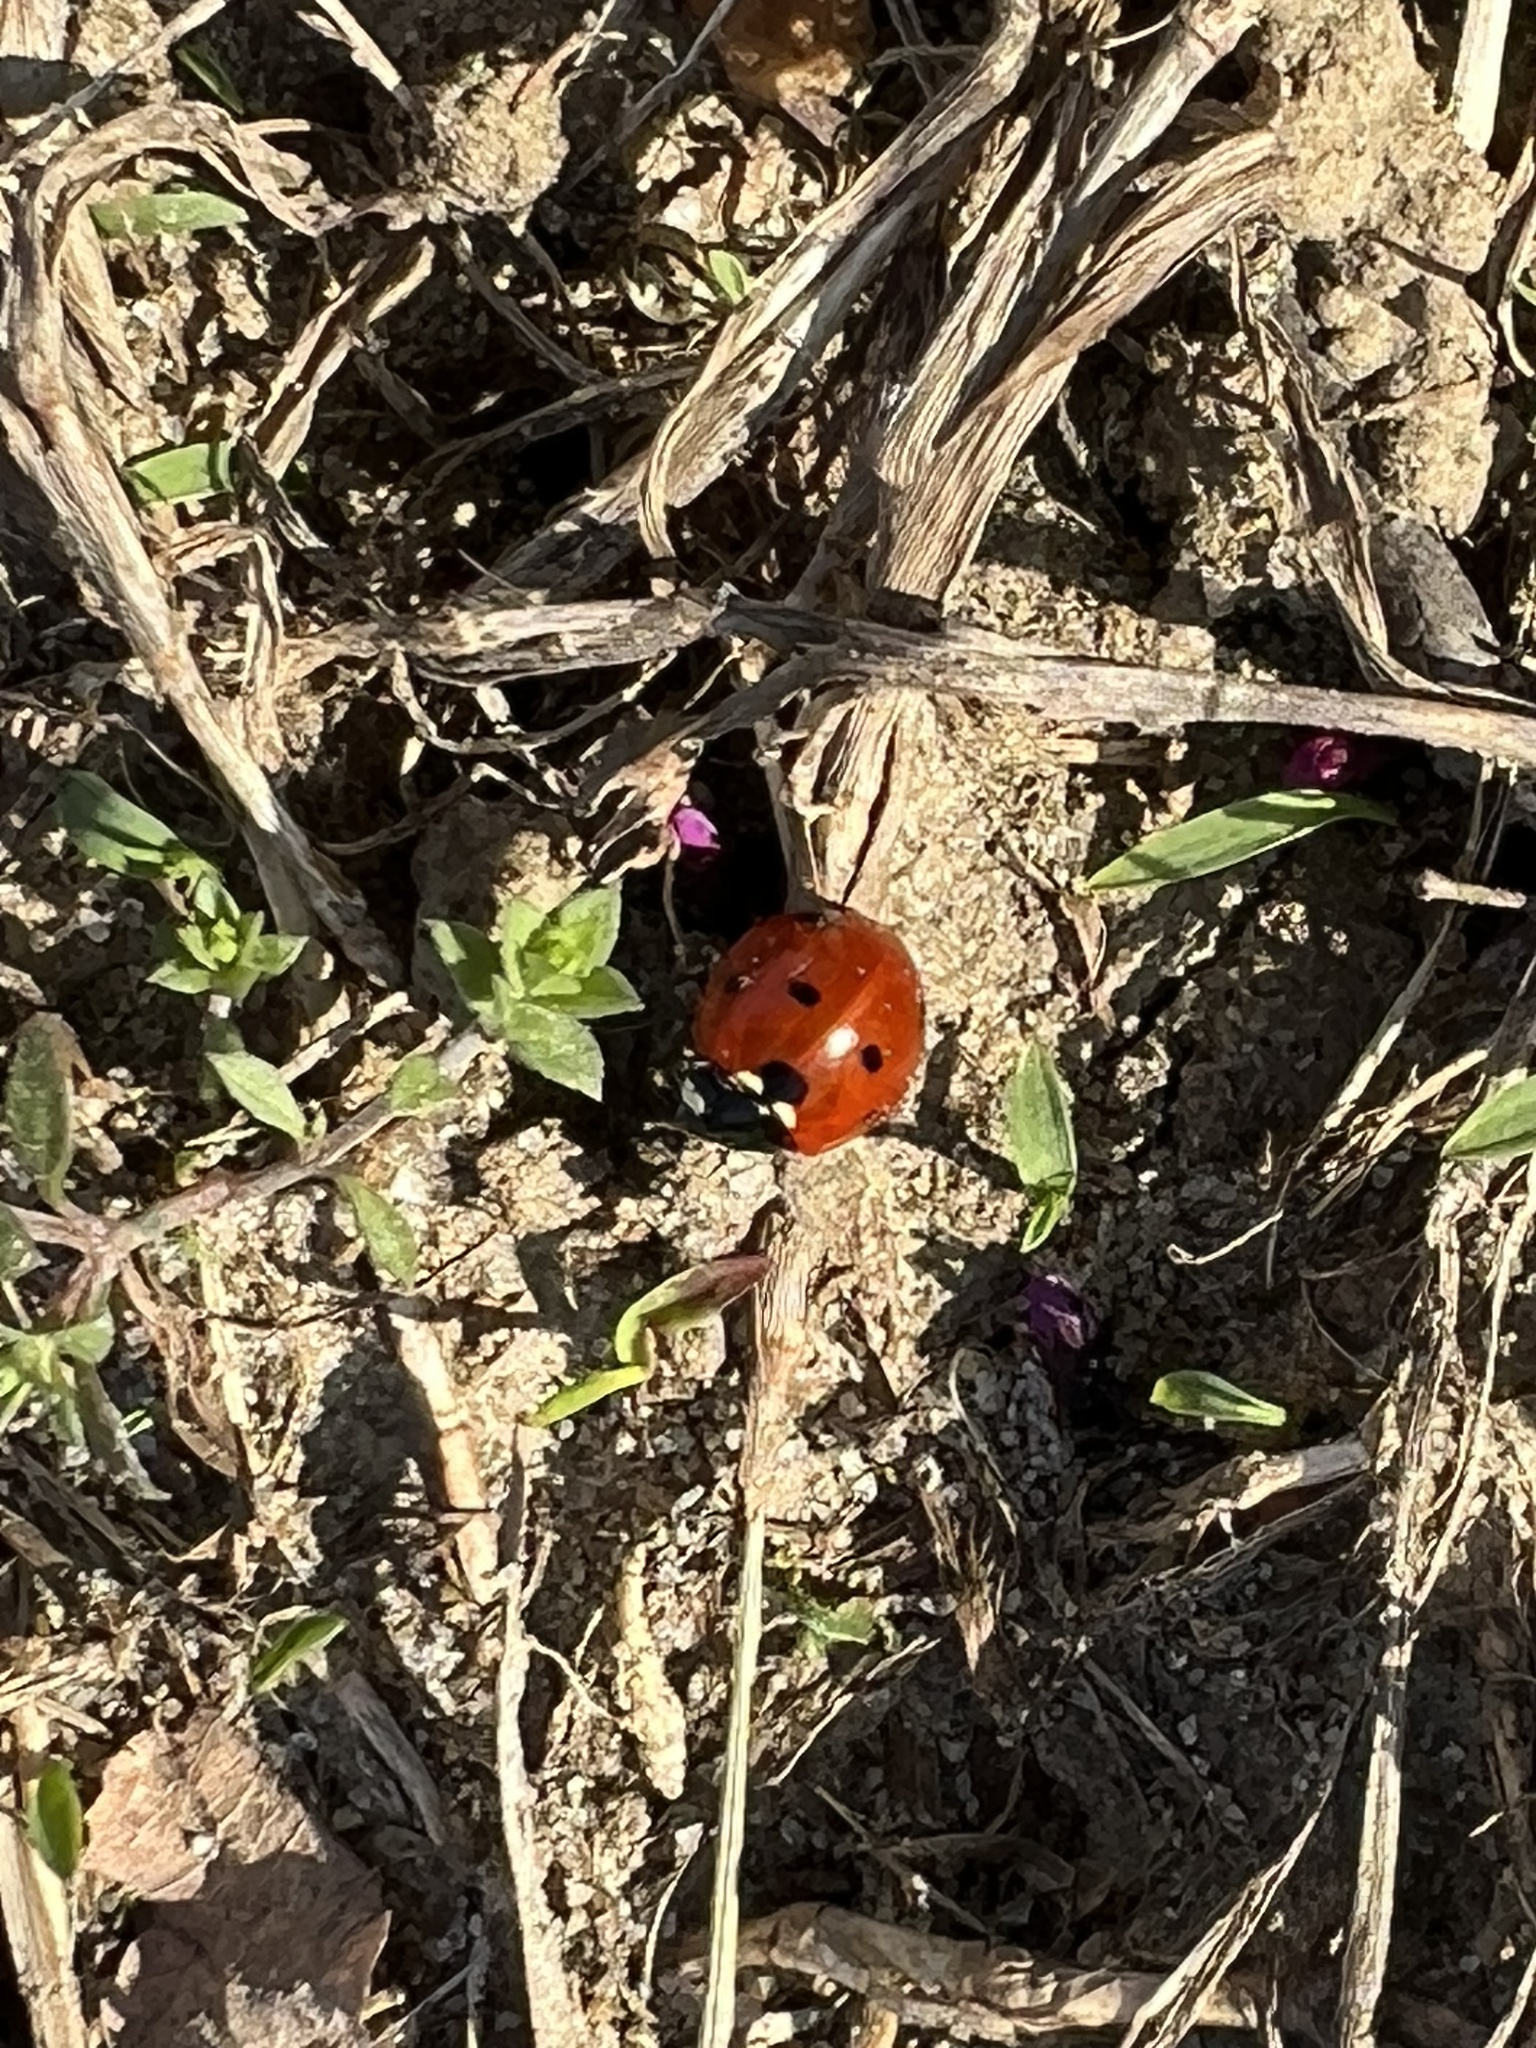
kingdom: Animalia
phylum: Arthropoda
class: Insecta
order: Coleoptera
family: Coccinellidae
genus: Coccinella
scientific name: Coccinella septempunctata
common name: Sevenspotted lady beetle
